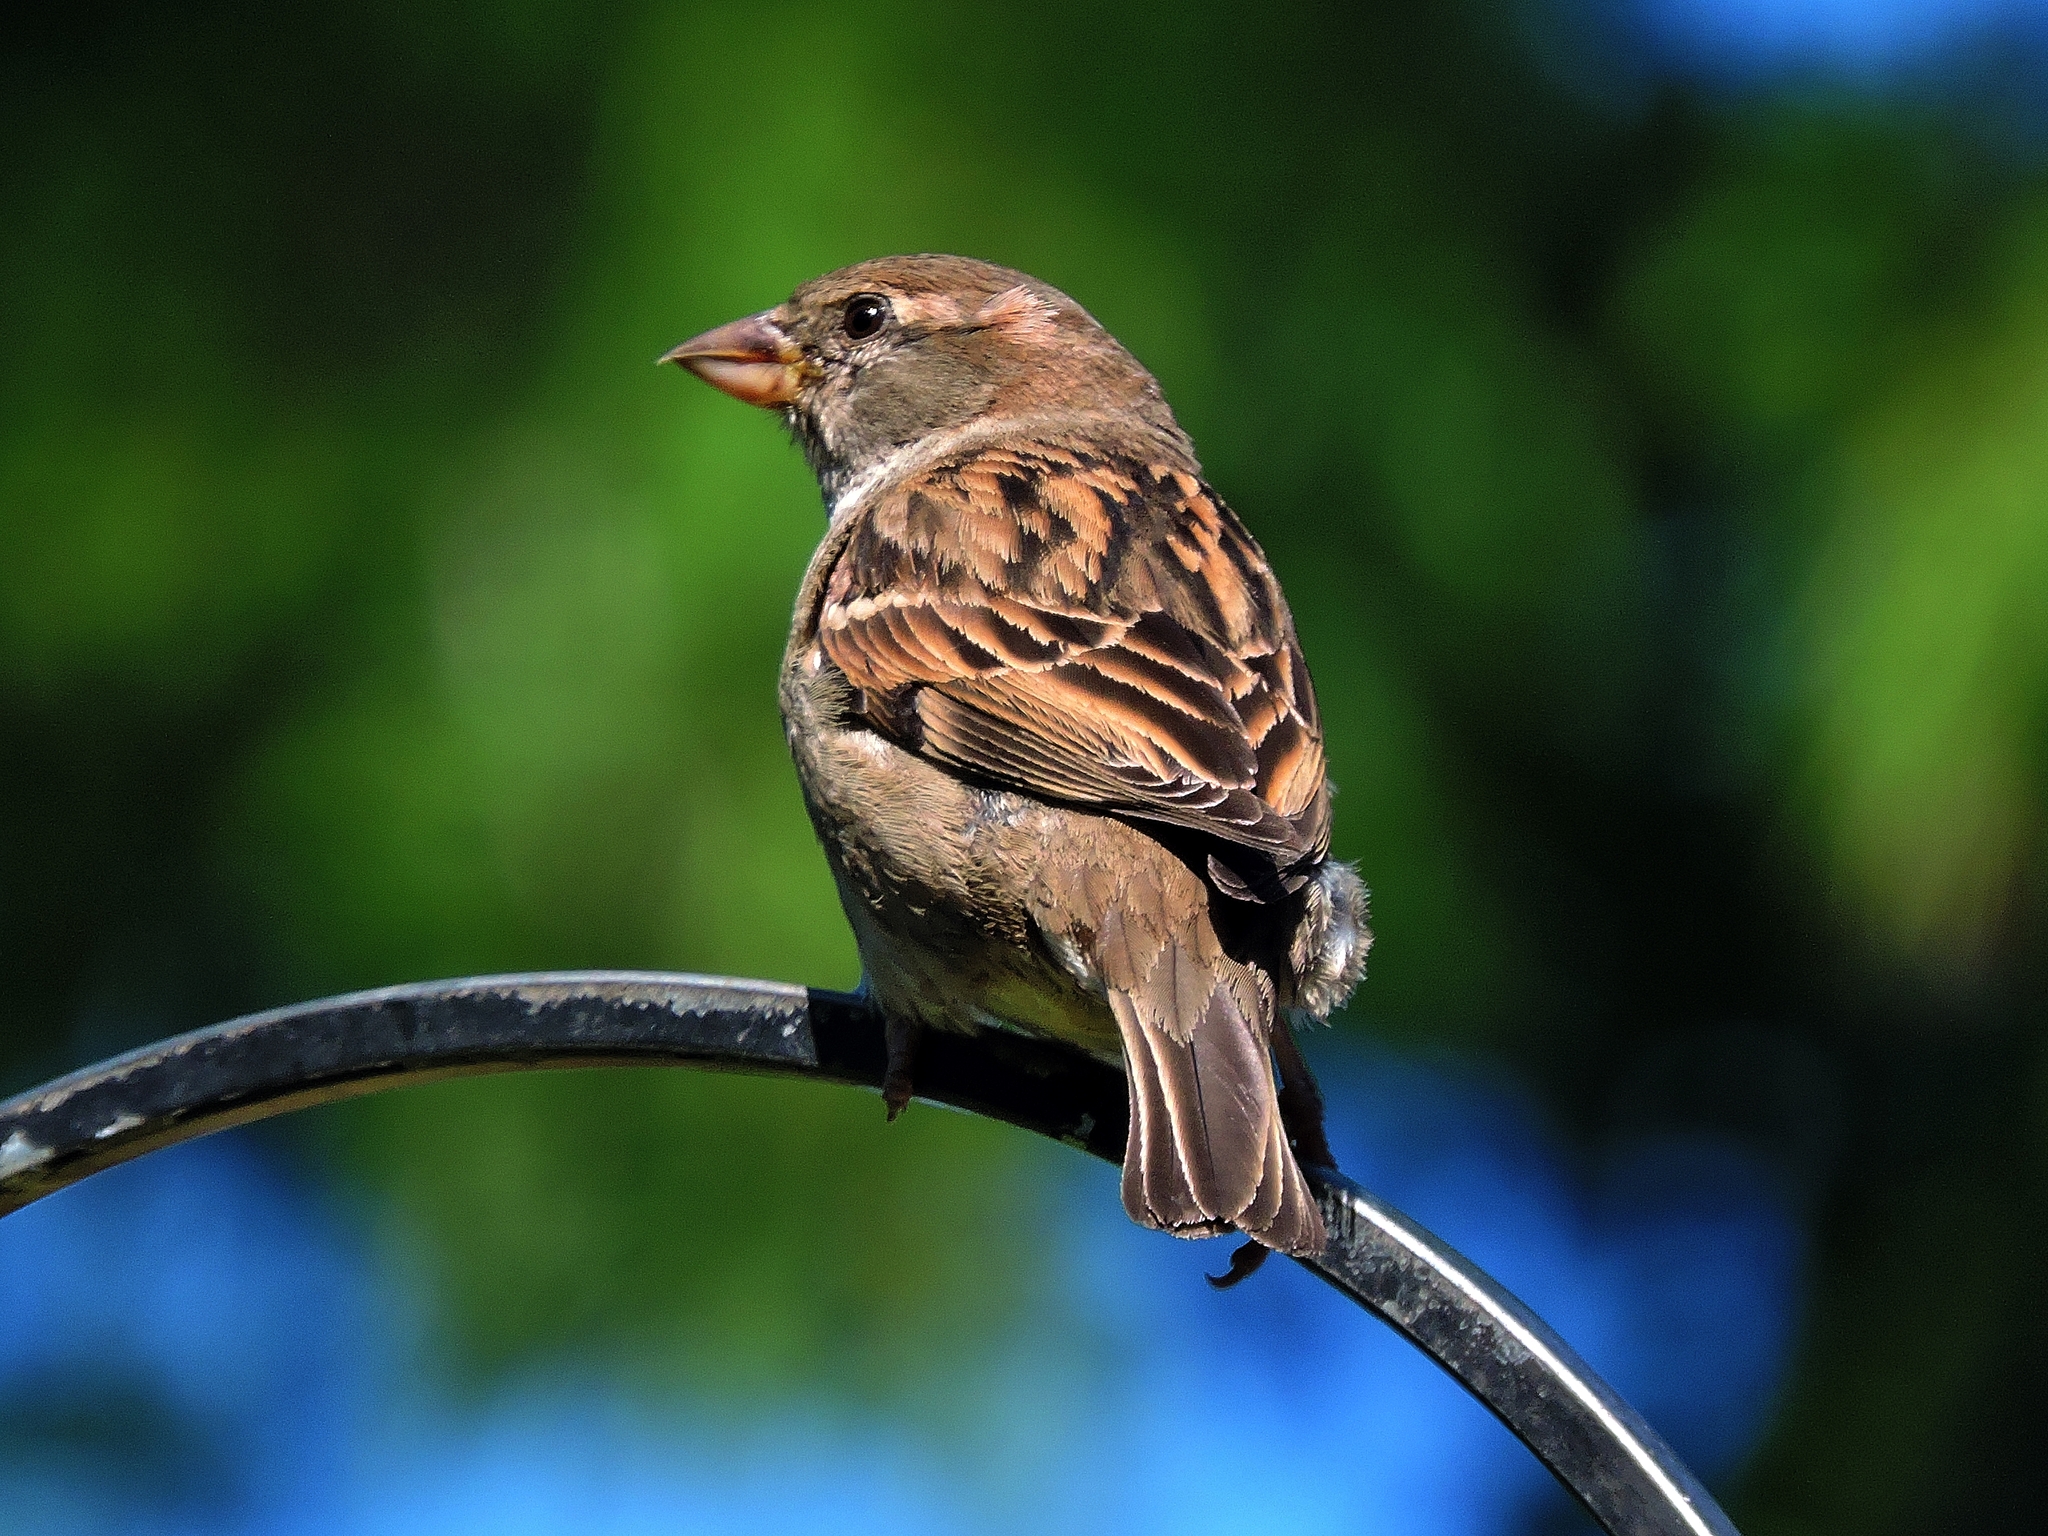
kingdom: Animalia
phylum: Chordata
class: Aves
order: Passeriformes
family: Passeridae
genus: Passer
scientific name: Passer domesticus
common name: House sparrow
